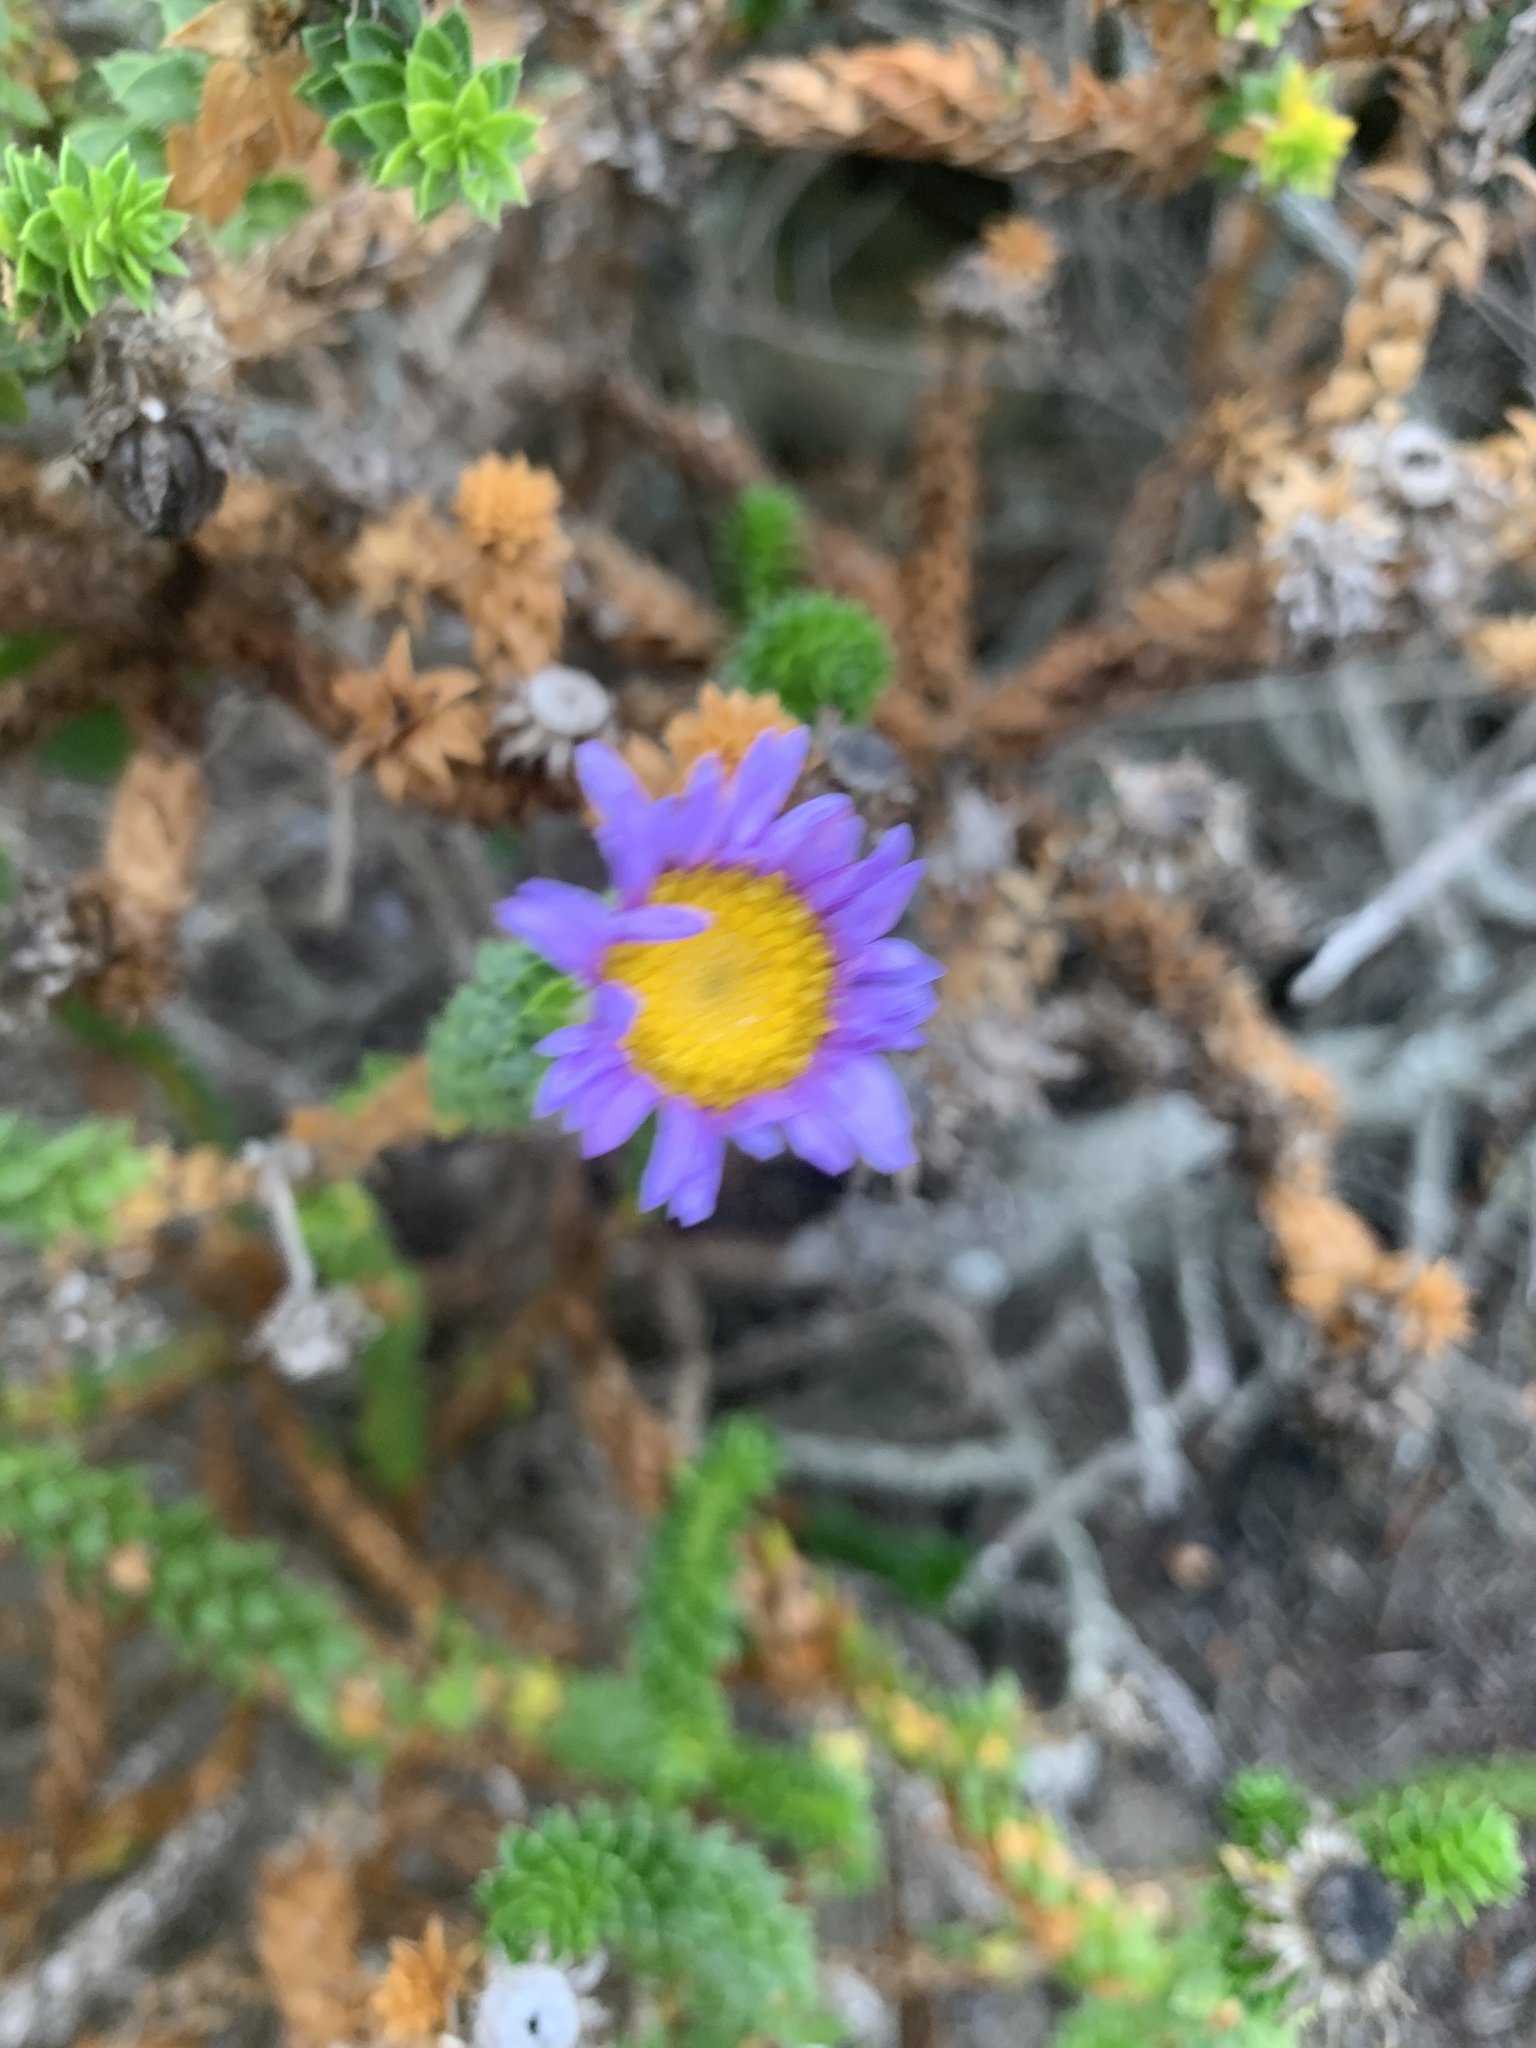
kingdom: Plantae
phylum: Tracheophyta
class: Magnoliopsida
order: Asterales
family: Asteraceae
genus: Felicia
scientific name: Felicia echinata
